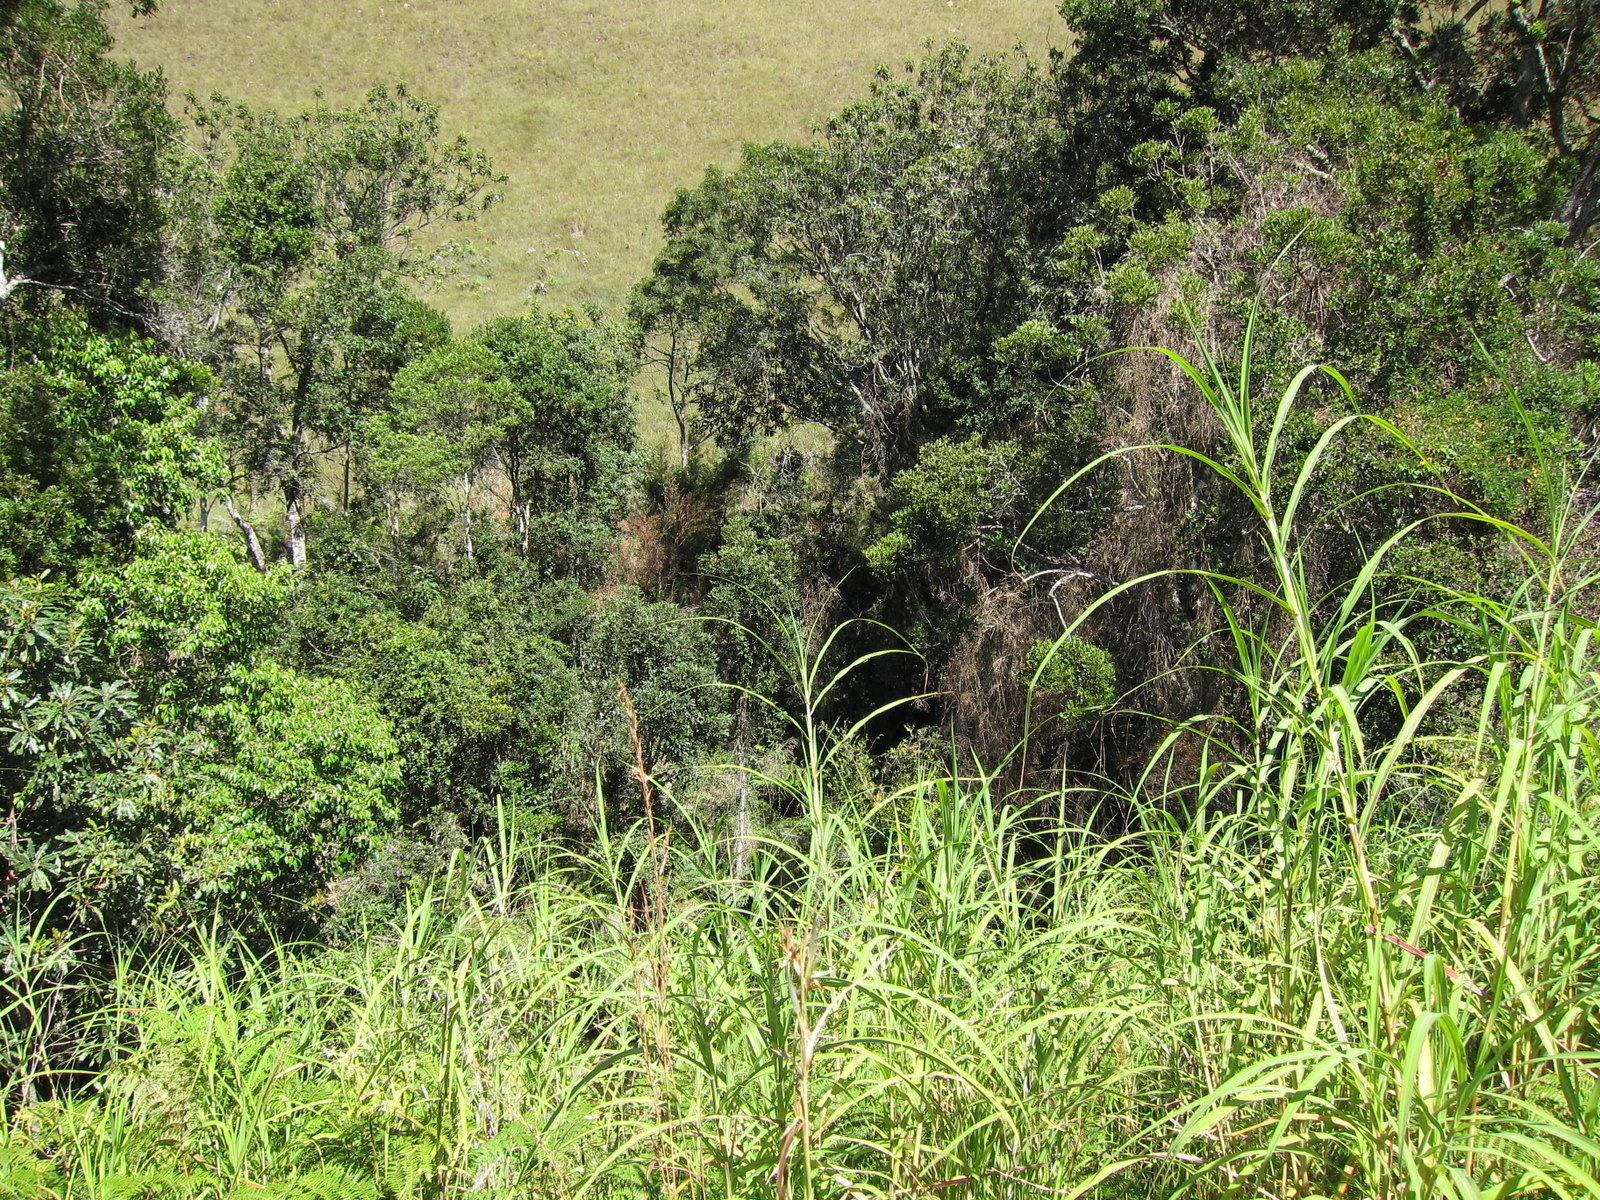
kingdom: Plantae
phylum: Tracheophyta
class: Liliopsida
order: Poales
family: Poaceae
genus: Hyparrhenia
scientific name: Hyparrhenia schimperi
